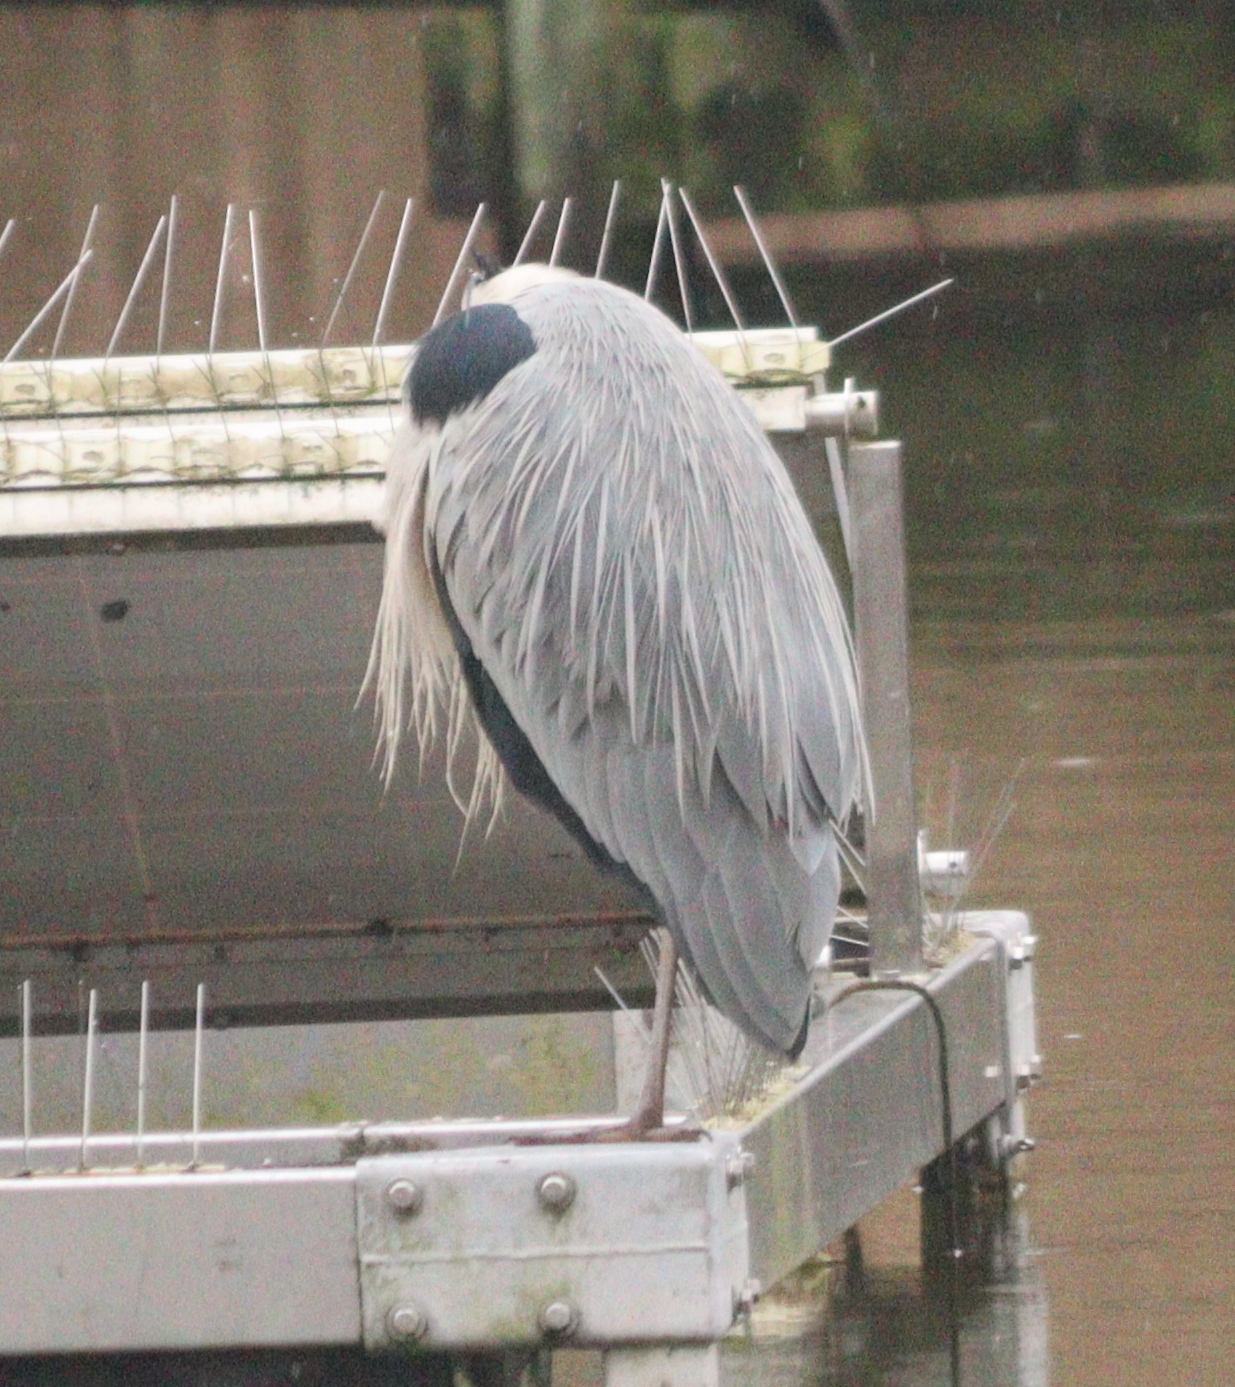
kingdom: Animalia
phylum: Chordata
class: Aves
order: Pelecaniformes
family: Ardeidae
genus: Ardea
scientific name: Ardea cinerea
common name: Grey heron
